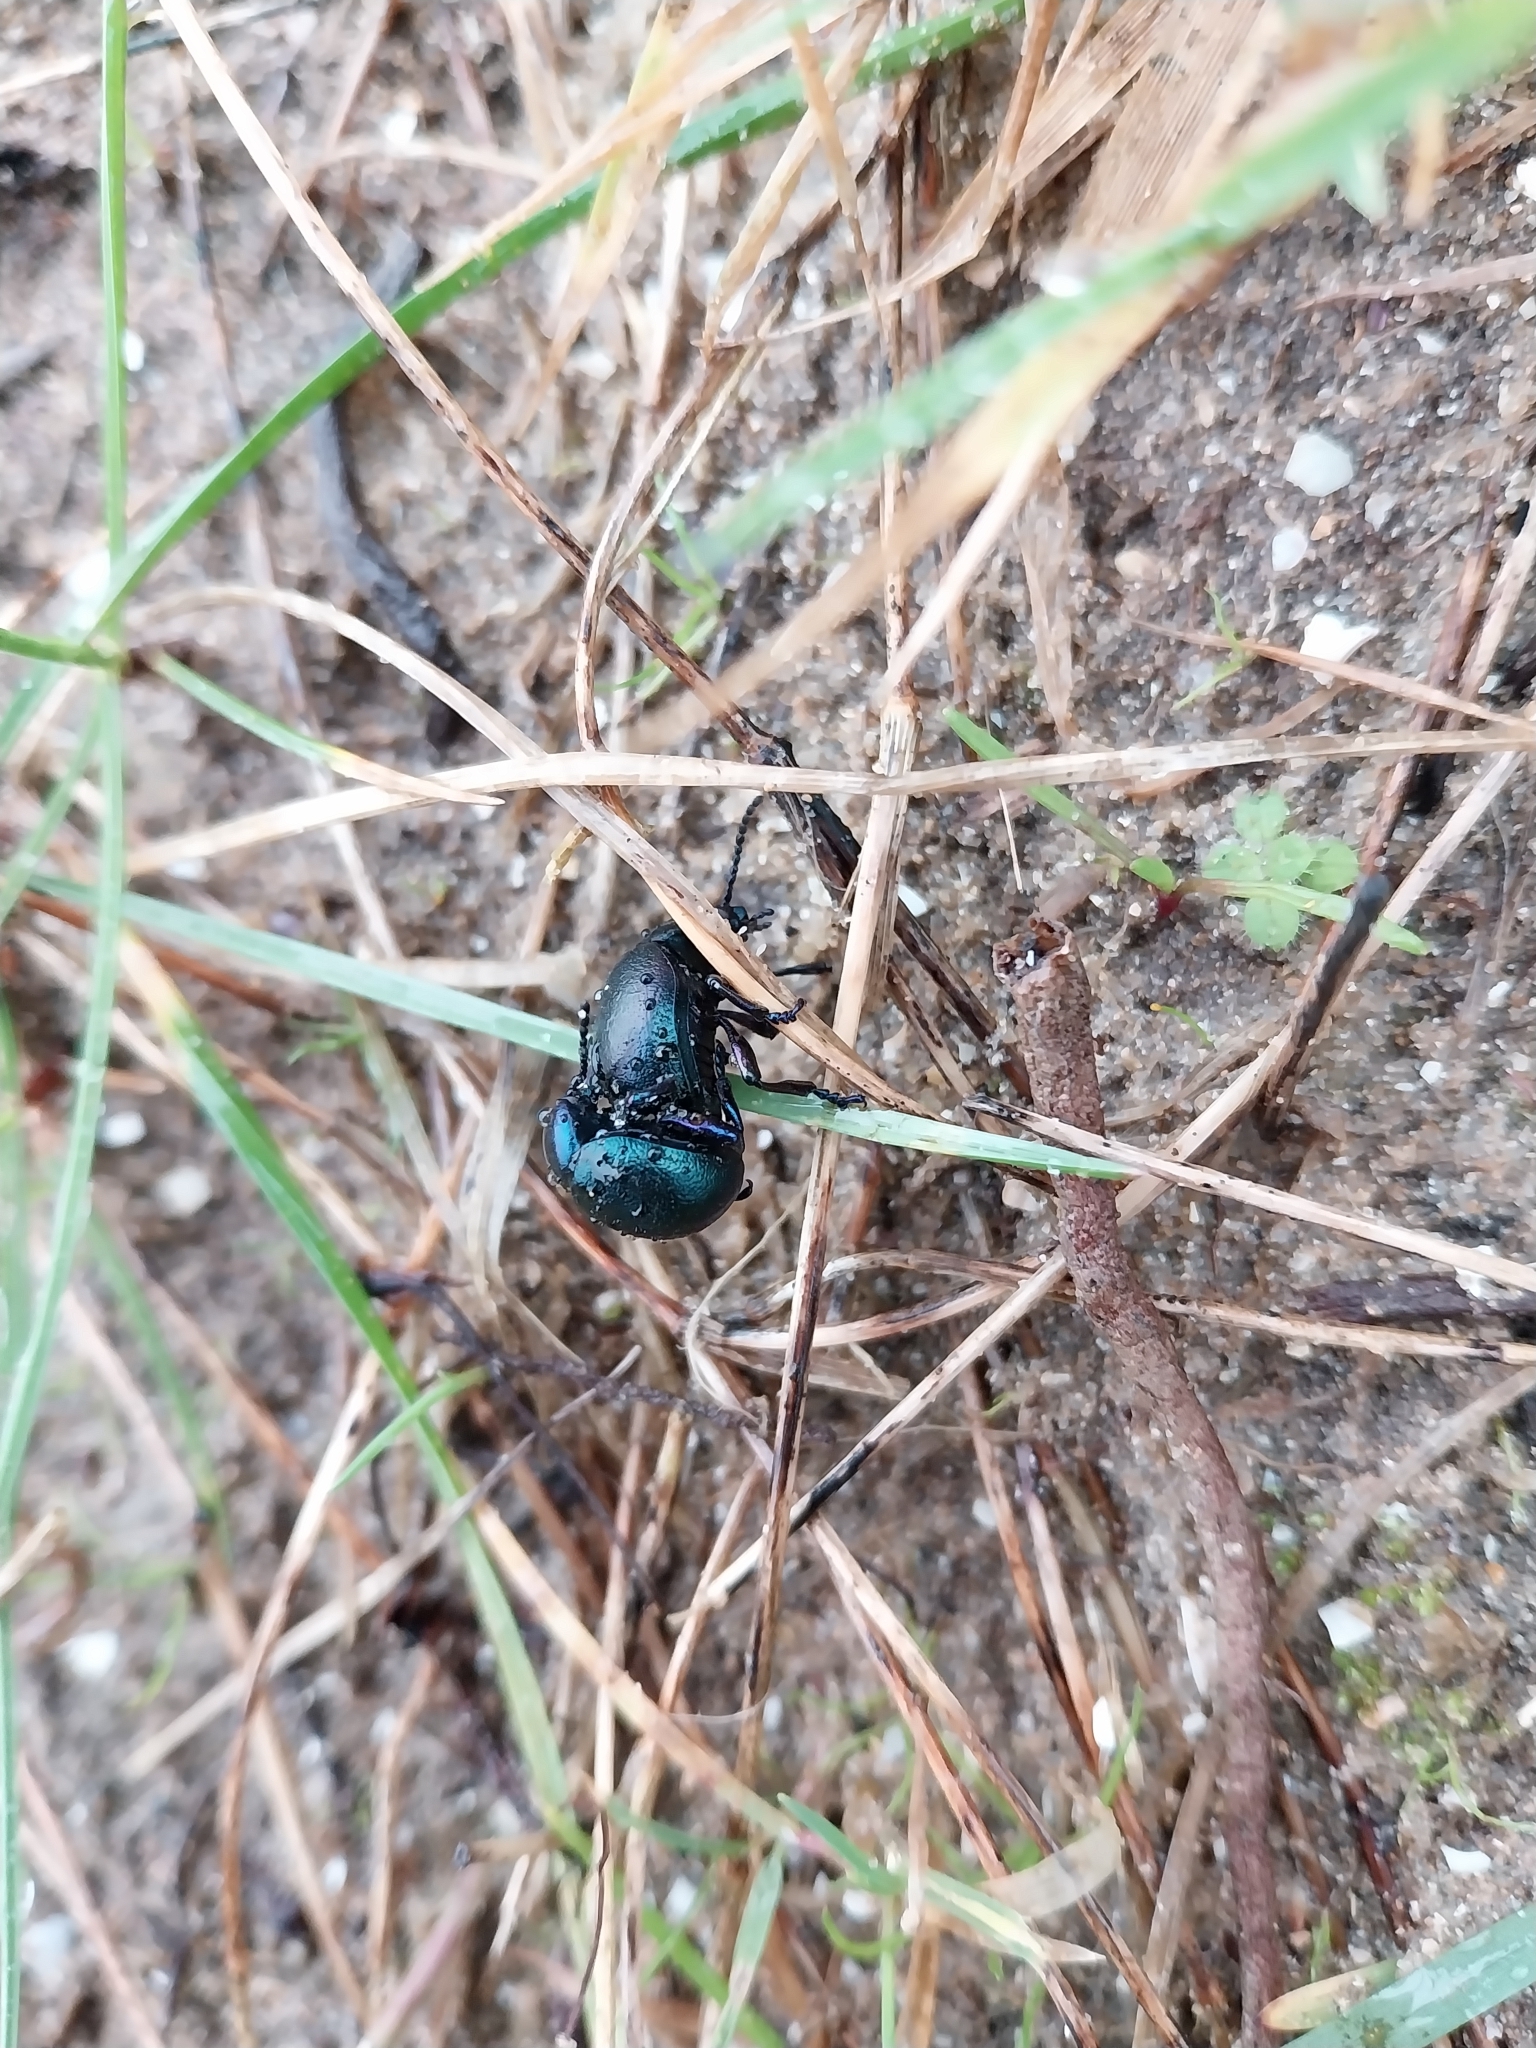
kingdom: Animalia
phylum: Arthropoda
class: Insecta
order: Coleoptera
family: Chrysomelidae
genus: Timarcha
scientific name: Timarcha goettingensis
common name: Small bloody-nosed beetle
